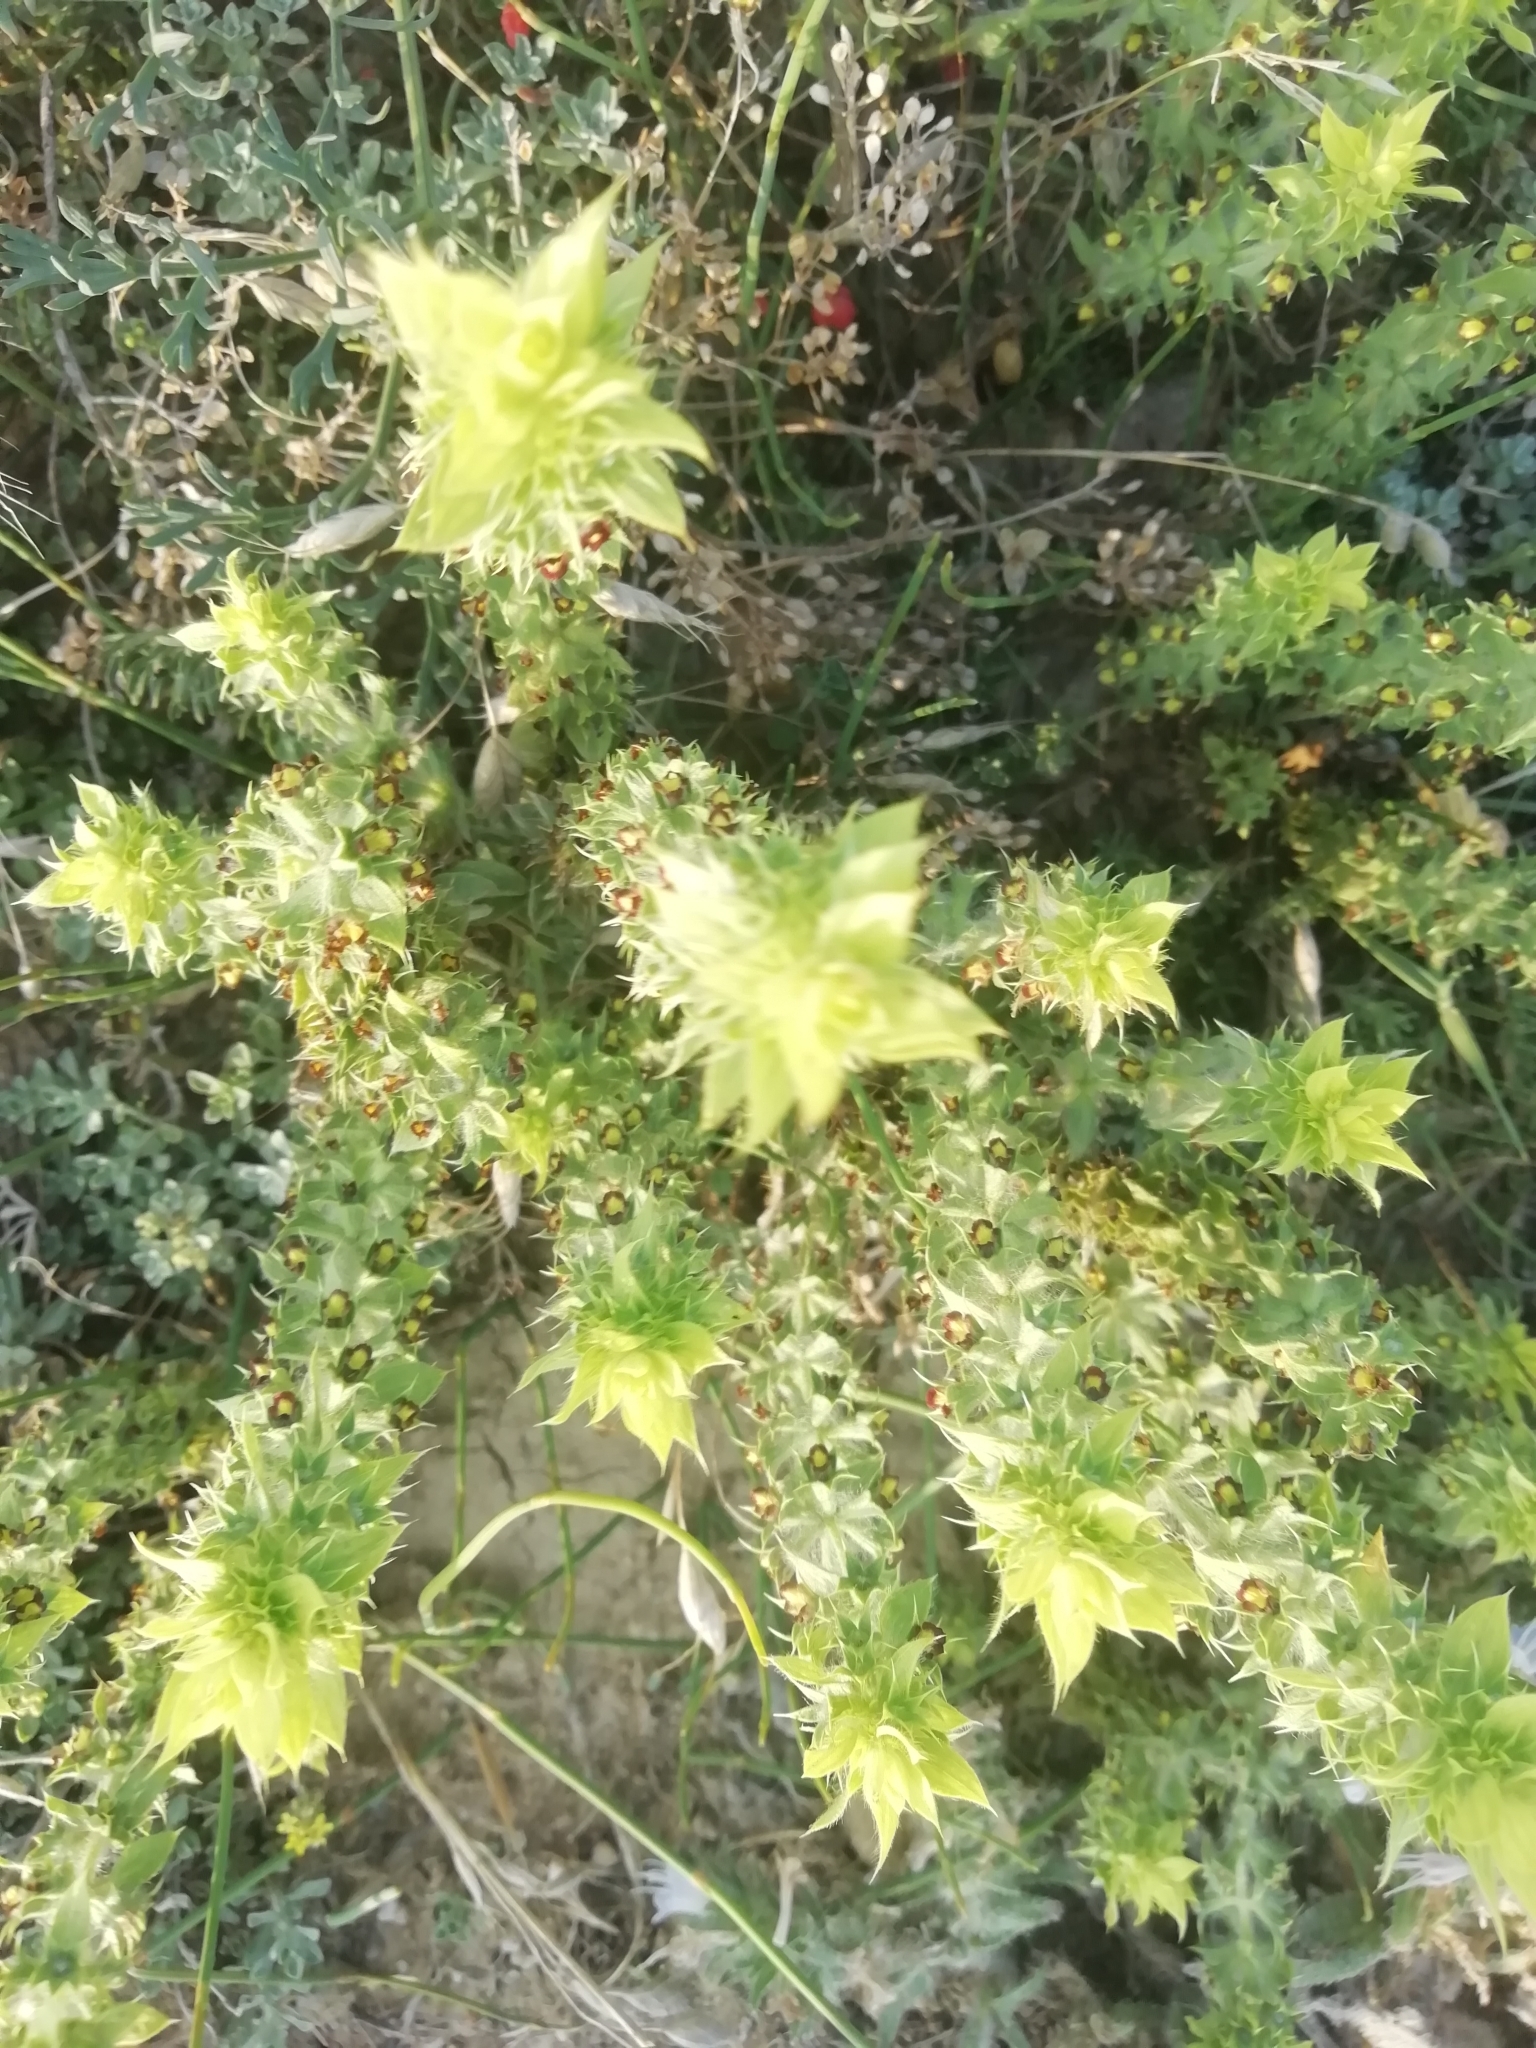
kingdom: Plantae
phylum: Tracheophyta
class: Magnoliopsida
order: Lamiales
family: Lamiaceae
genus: Sideritis
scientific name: Sideritis montana
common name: Mountain ironwort
